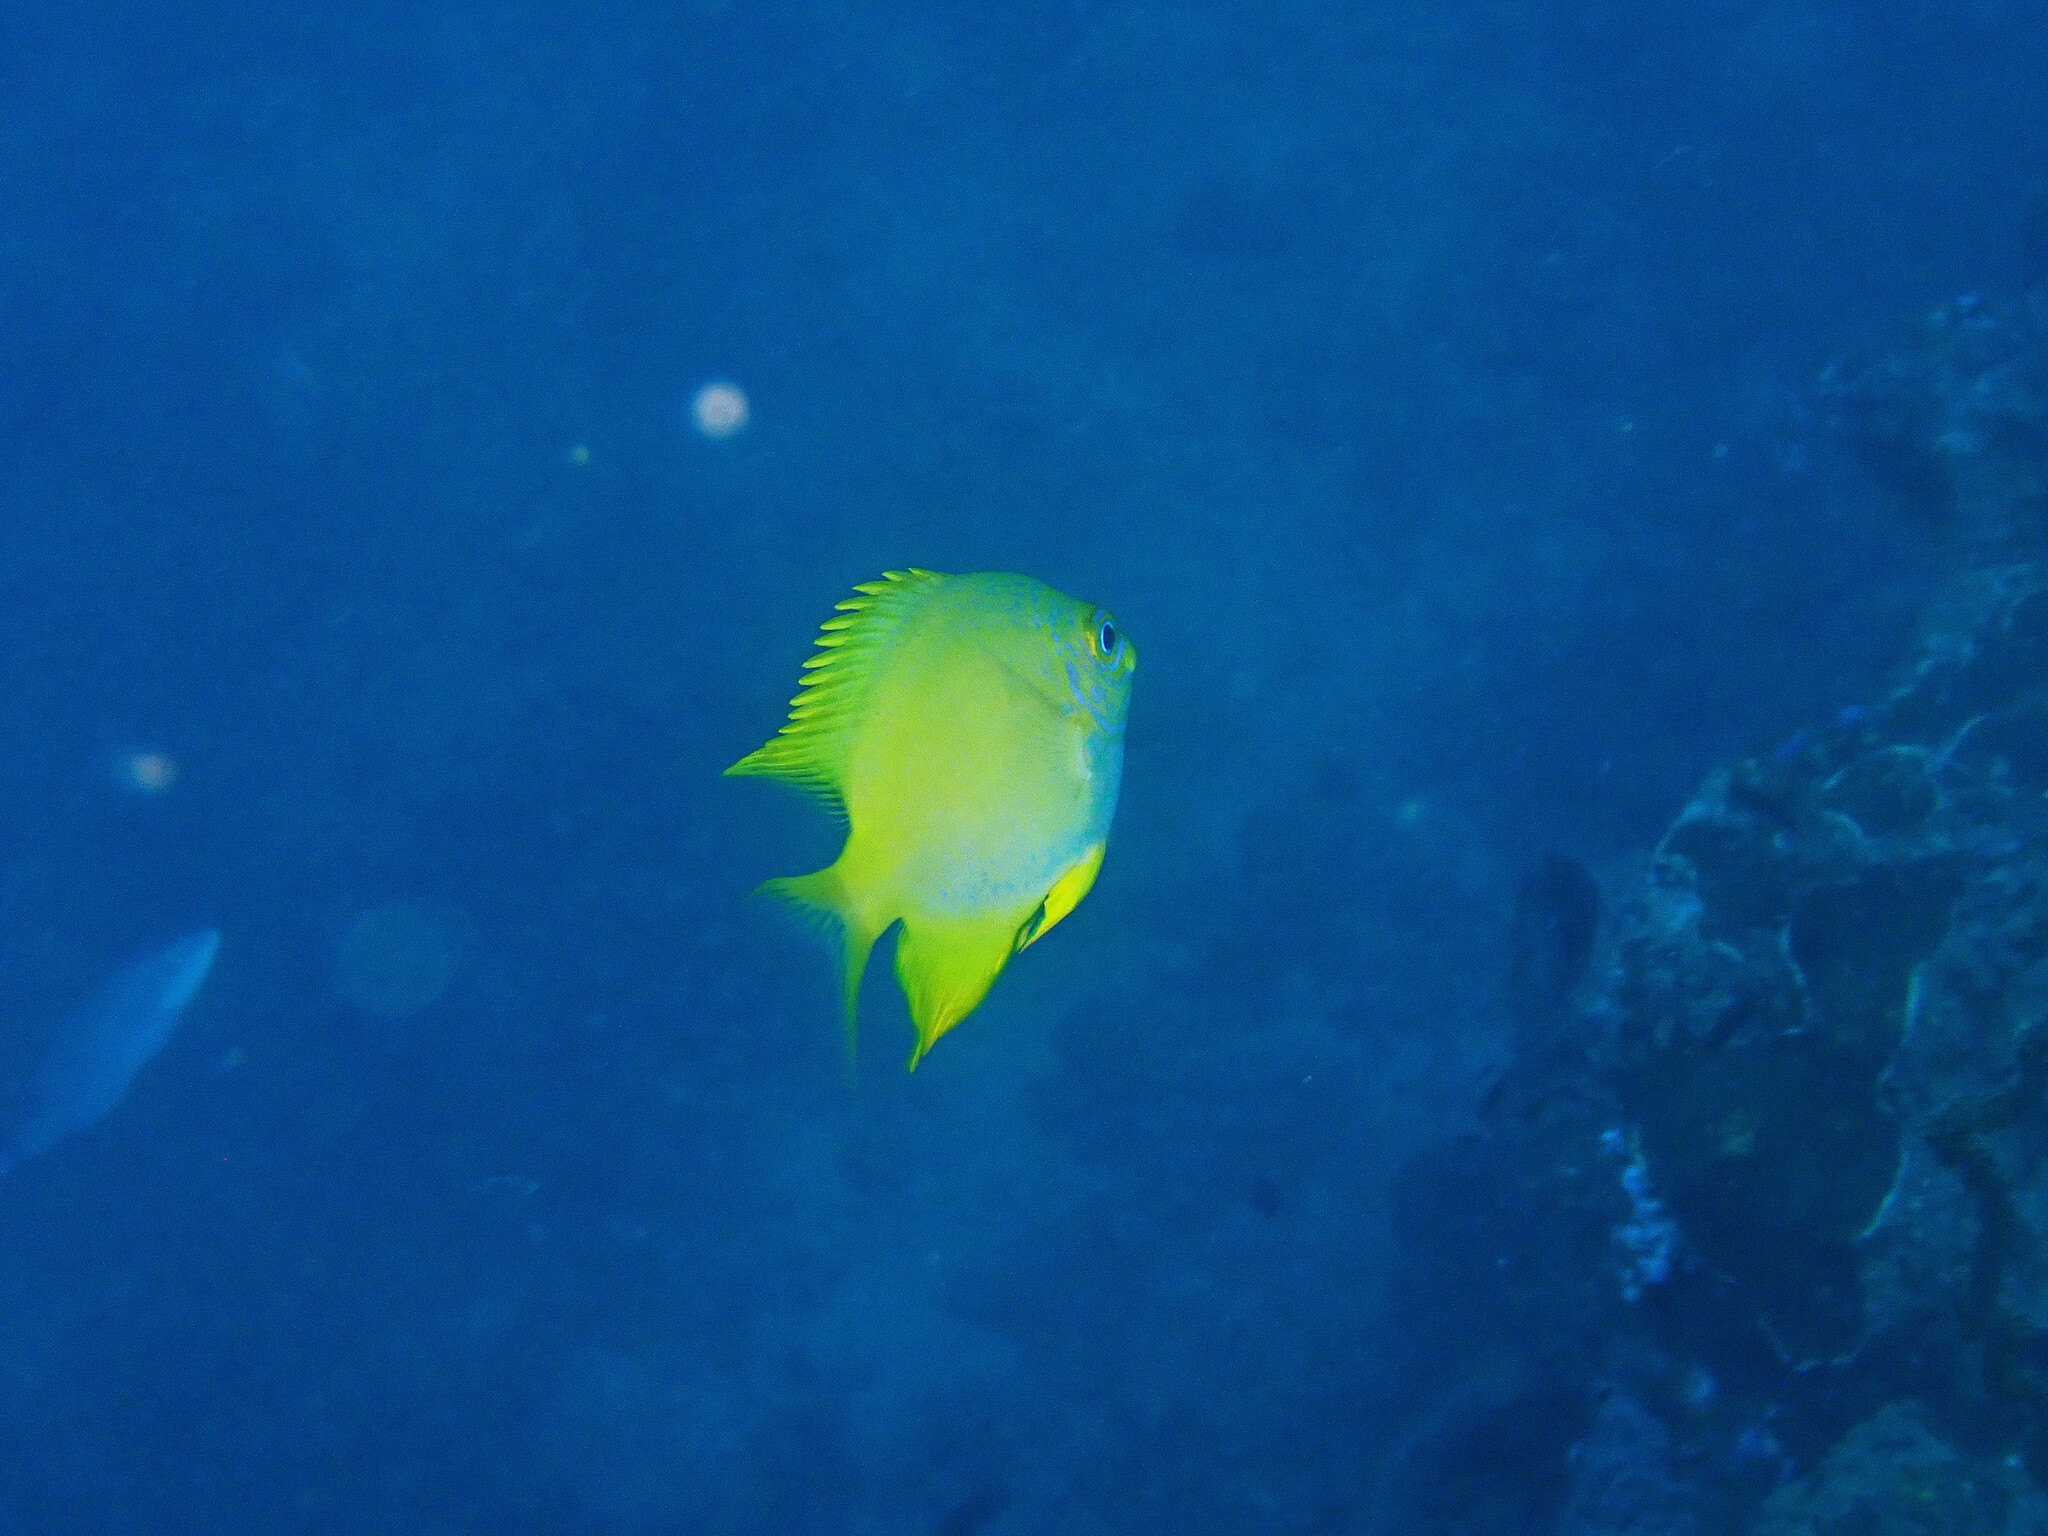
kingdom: Animalia
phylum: Chordata
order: Perciformes
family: Pomacentridae
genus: Amblyglyphidodon
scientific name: Amblyglyphidodon aureus
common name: Golden damsel
